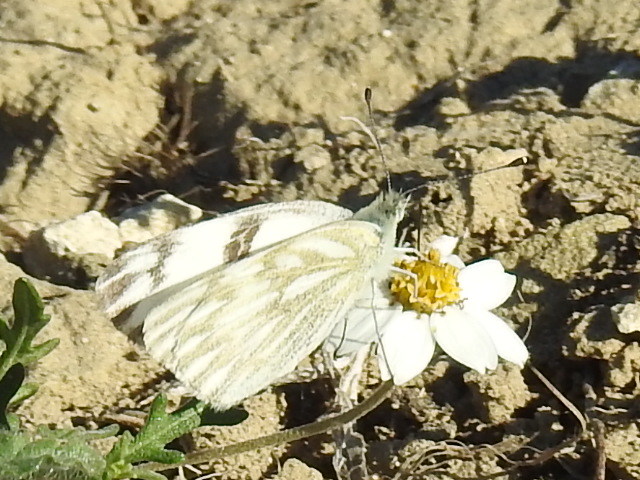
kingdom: Animalia
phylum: Arthropoda
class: Insecta
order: Lepidoptera
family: Pieridae
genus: Pontia
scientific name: Pontia protodice
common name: Checkered white
